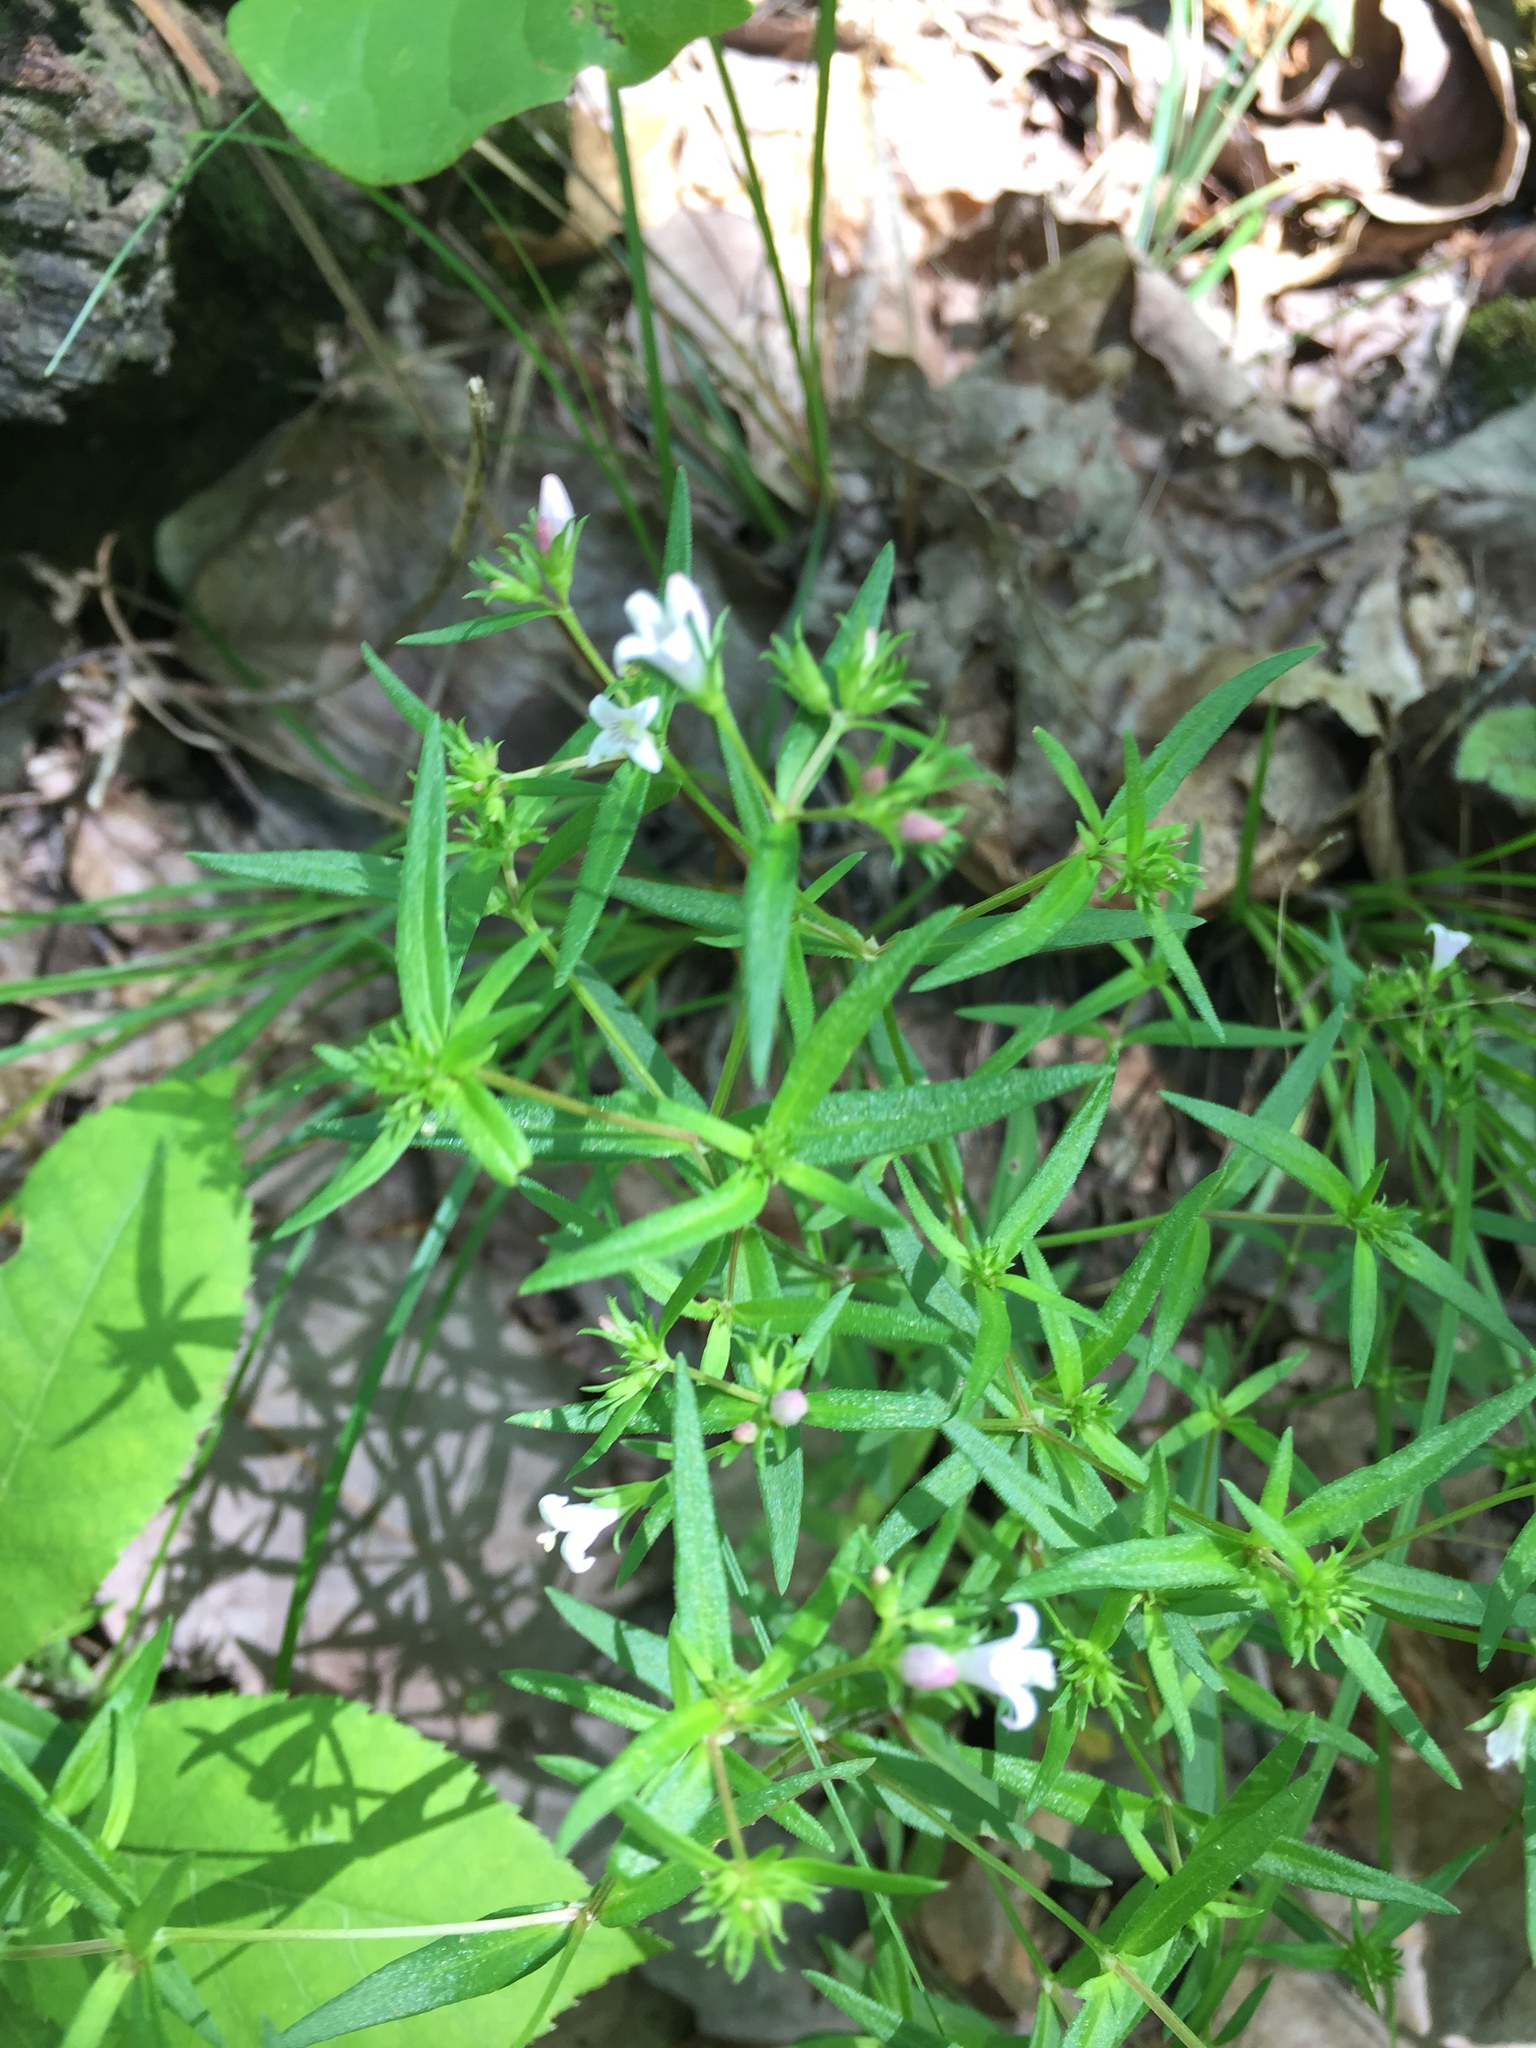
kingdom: Plantae
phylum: Tracheophyta
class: Magnoliopsida
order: Gentianales
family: Rubiaceae
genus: Houstonia
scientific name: Houstonia longifolia
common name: Long-leaved bluets
